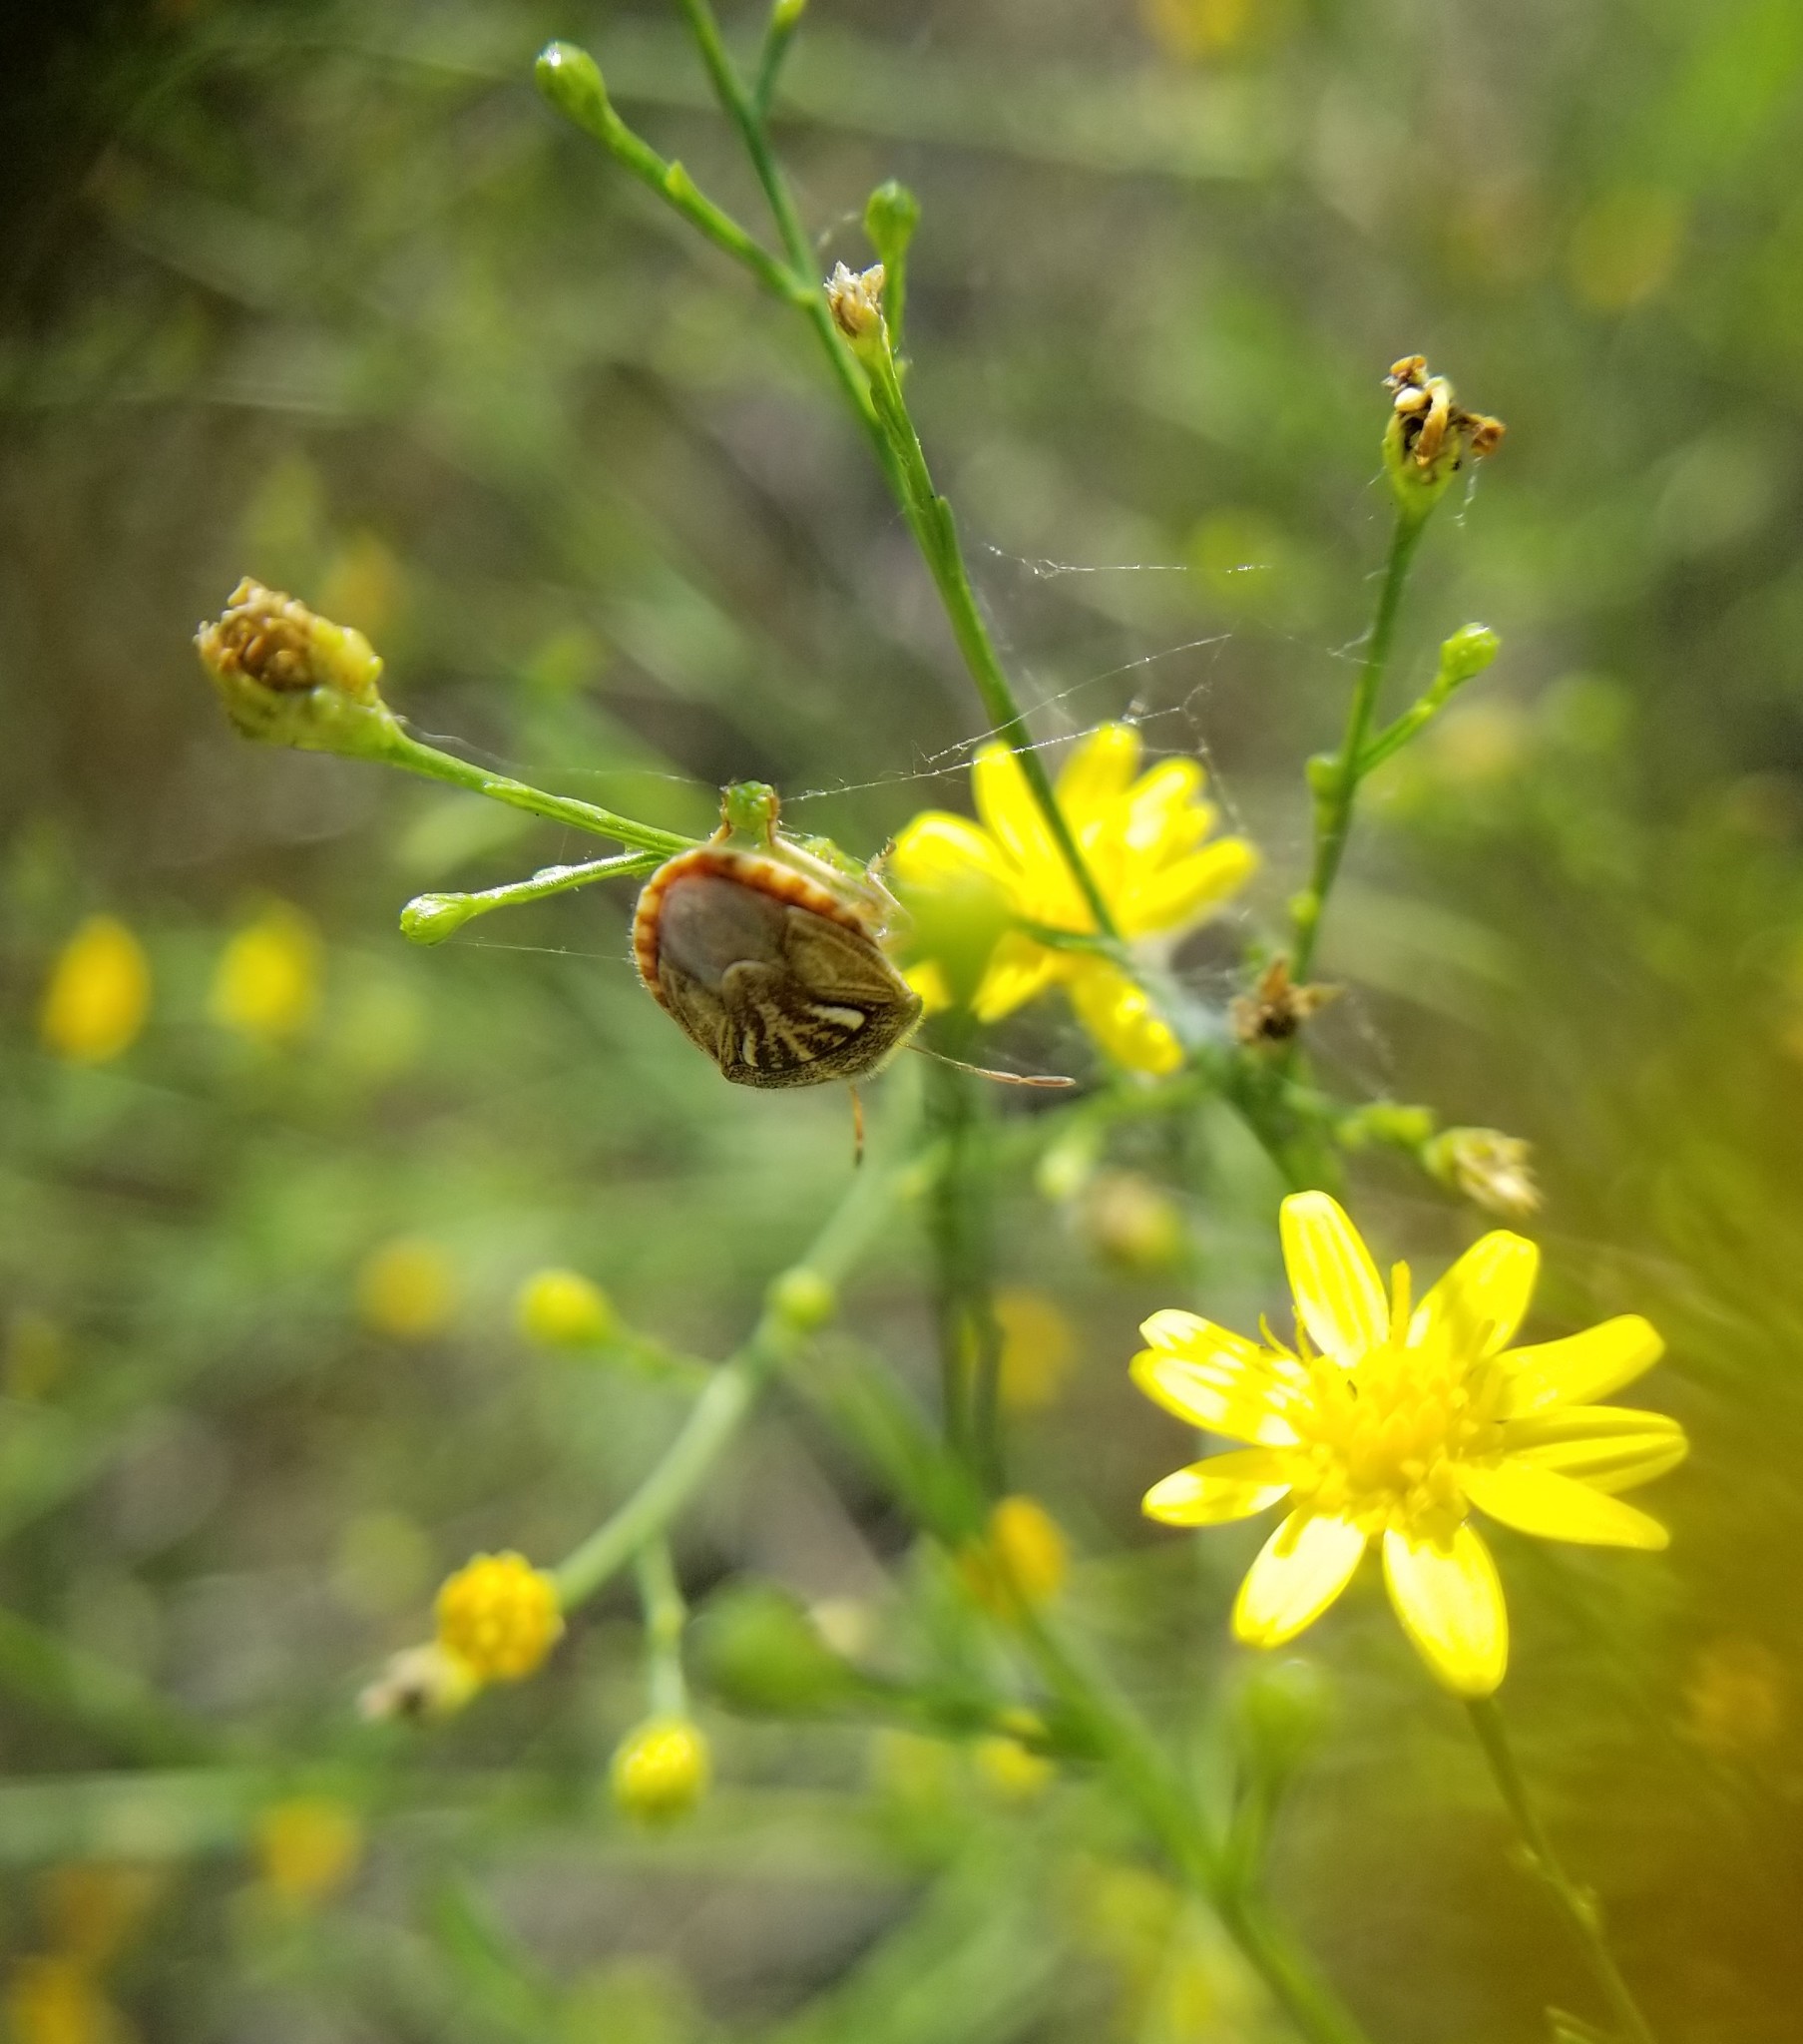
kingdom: Animalia
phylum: Arthropoda
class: Insecta
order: Hemiptera
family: Pentatomidae
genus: Trichopepla
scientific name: Trichopepla semivittata
